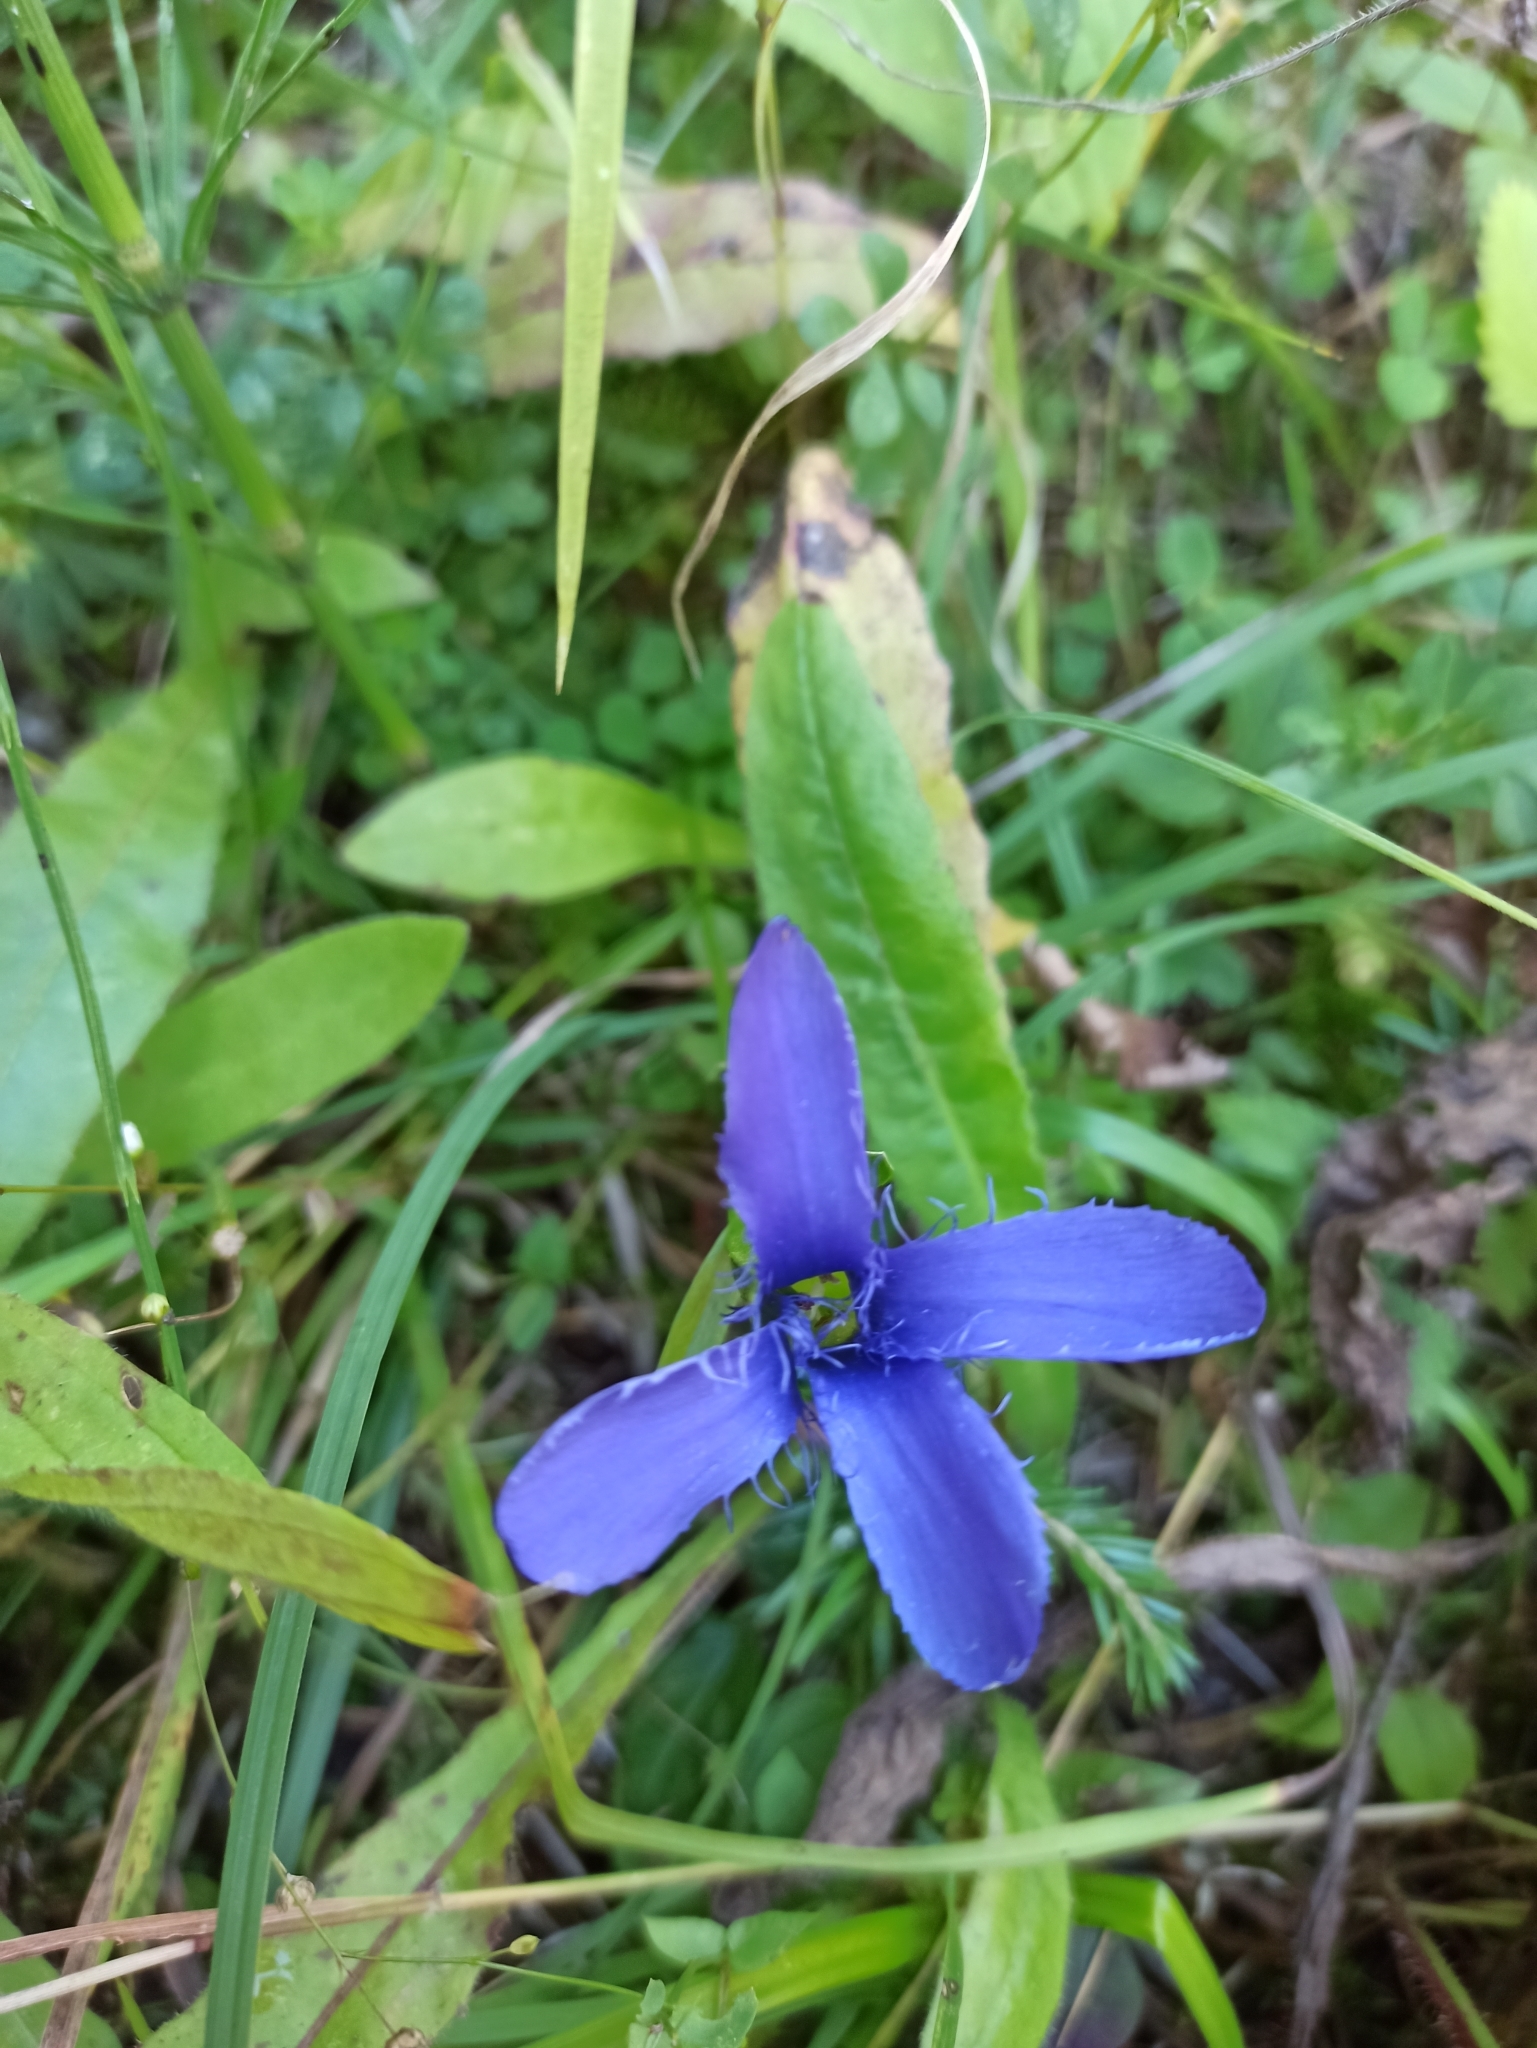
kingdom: Plantae
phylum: Tracheophyta
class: Magnoliopsida
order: Gentianales
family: Gentianaceae
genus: Gentianopsis
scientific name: Gentianopsis ciliata
